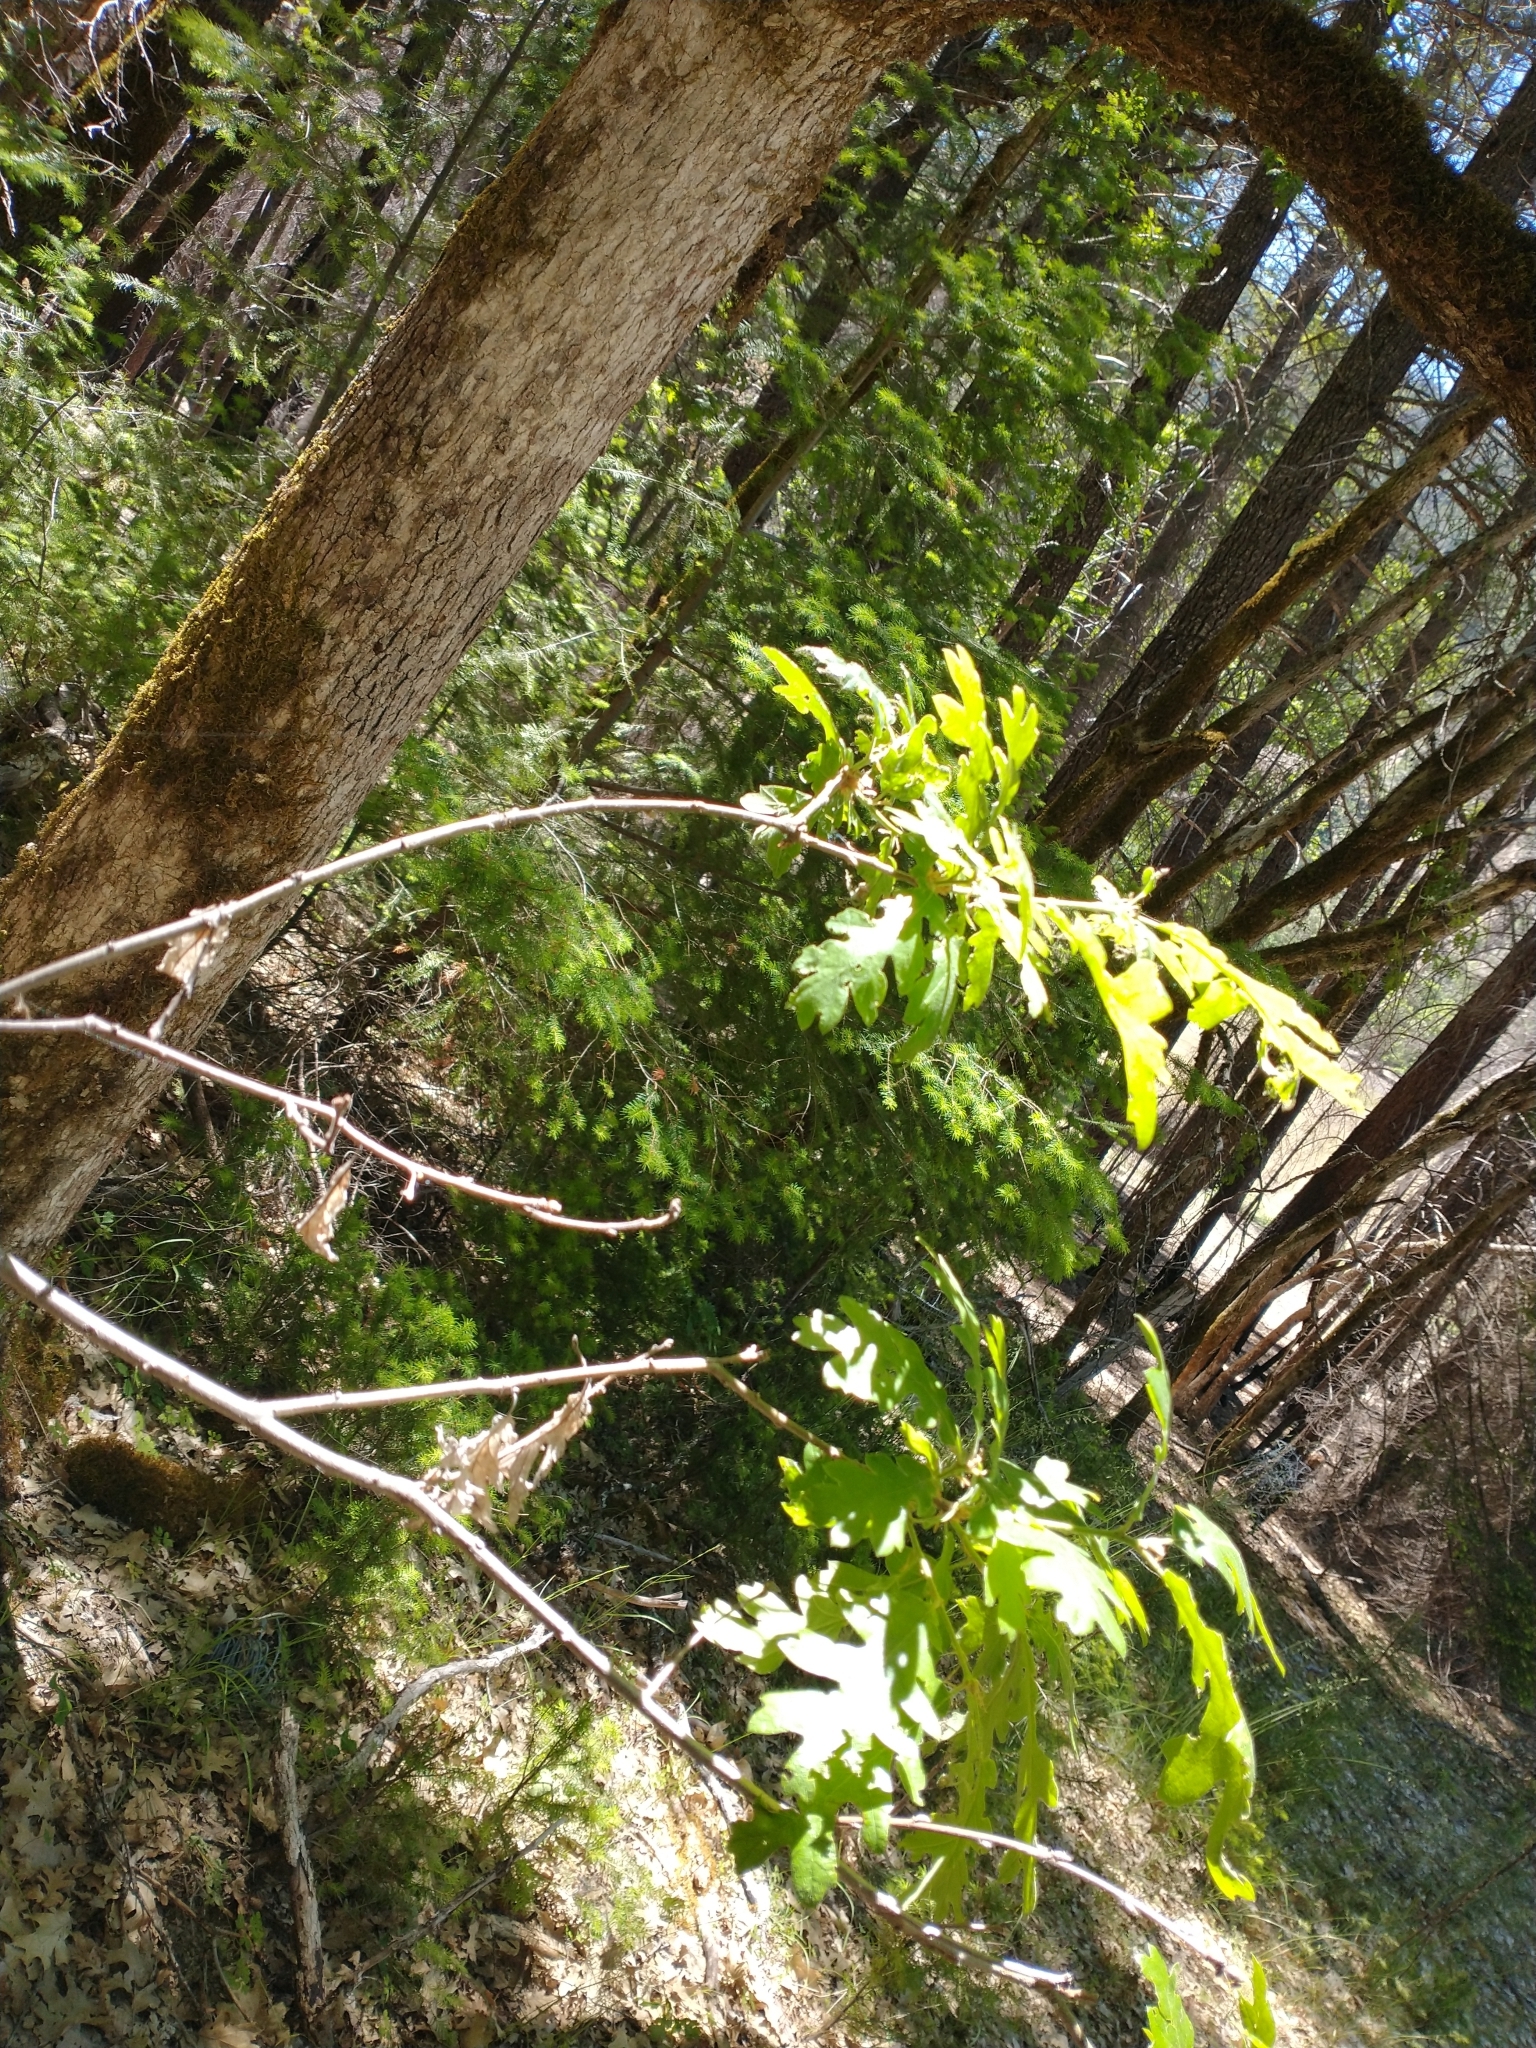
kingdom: Plantae
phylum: Tracheophyta
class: Magnoliopsida
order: Fagales
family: Fagaceae
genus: Quercus
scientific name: Quercus garryana
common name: Garry oak
